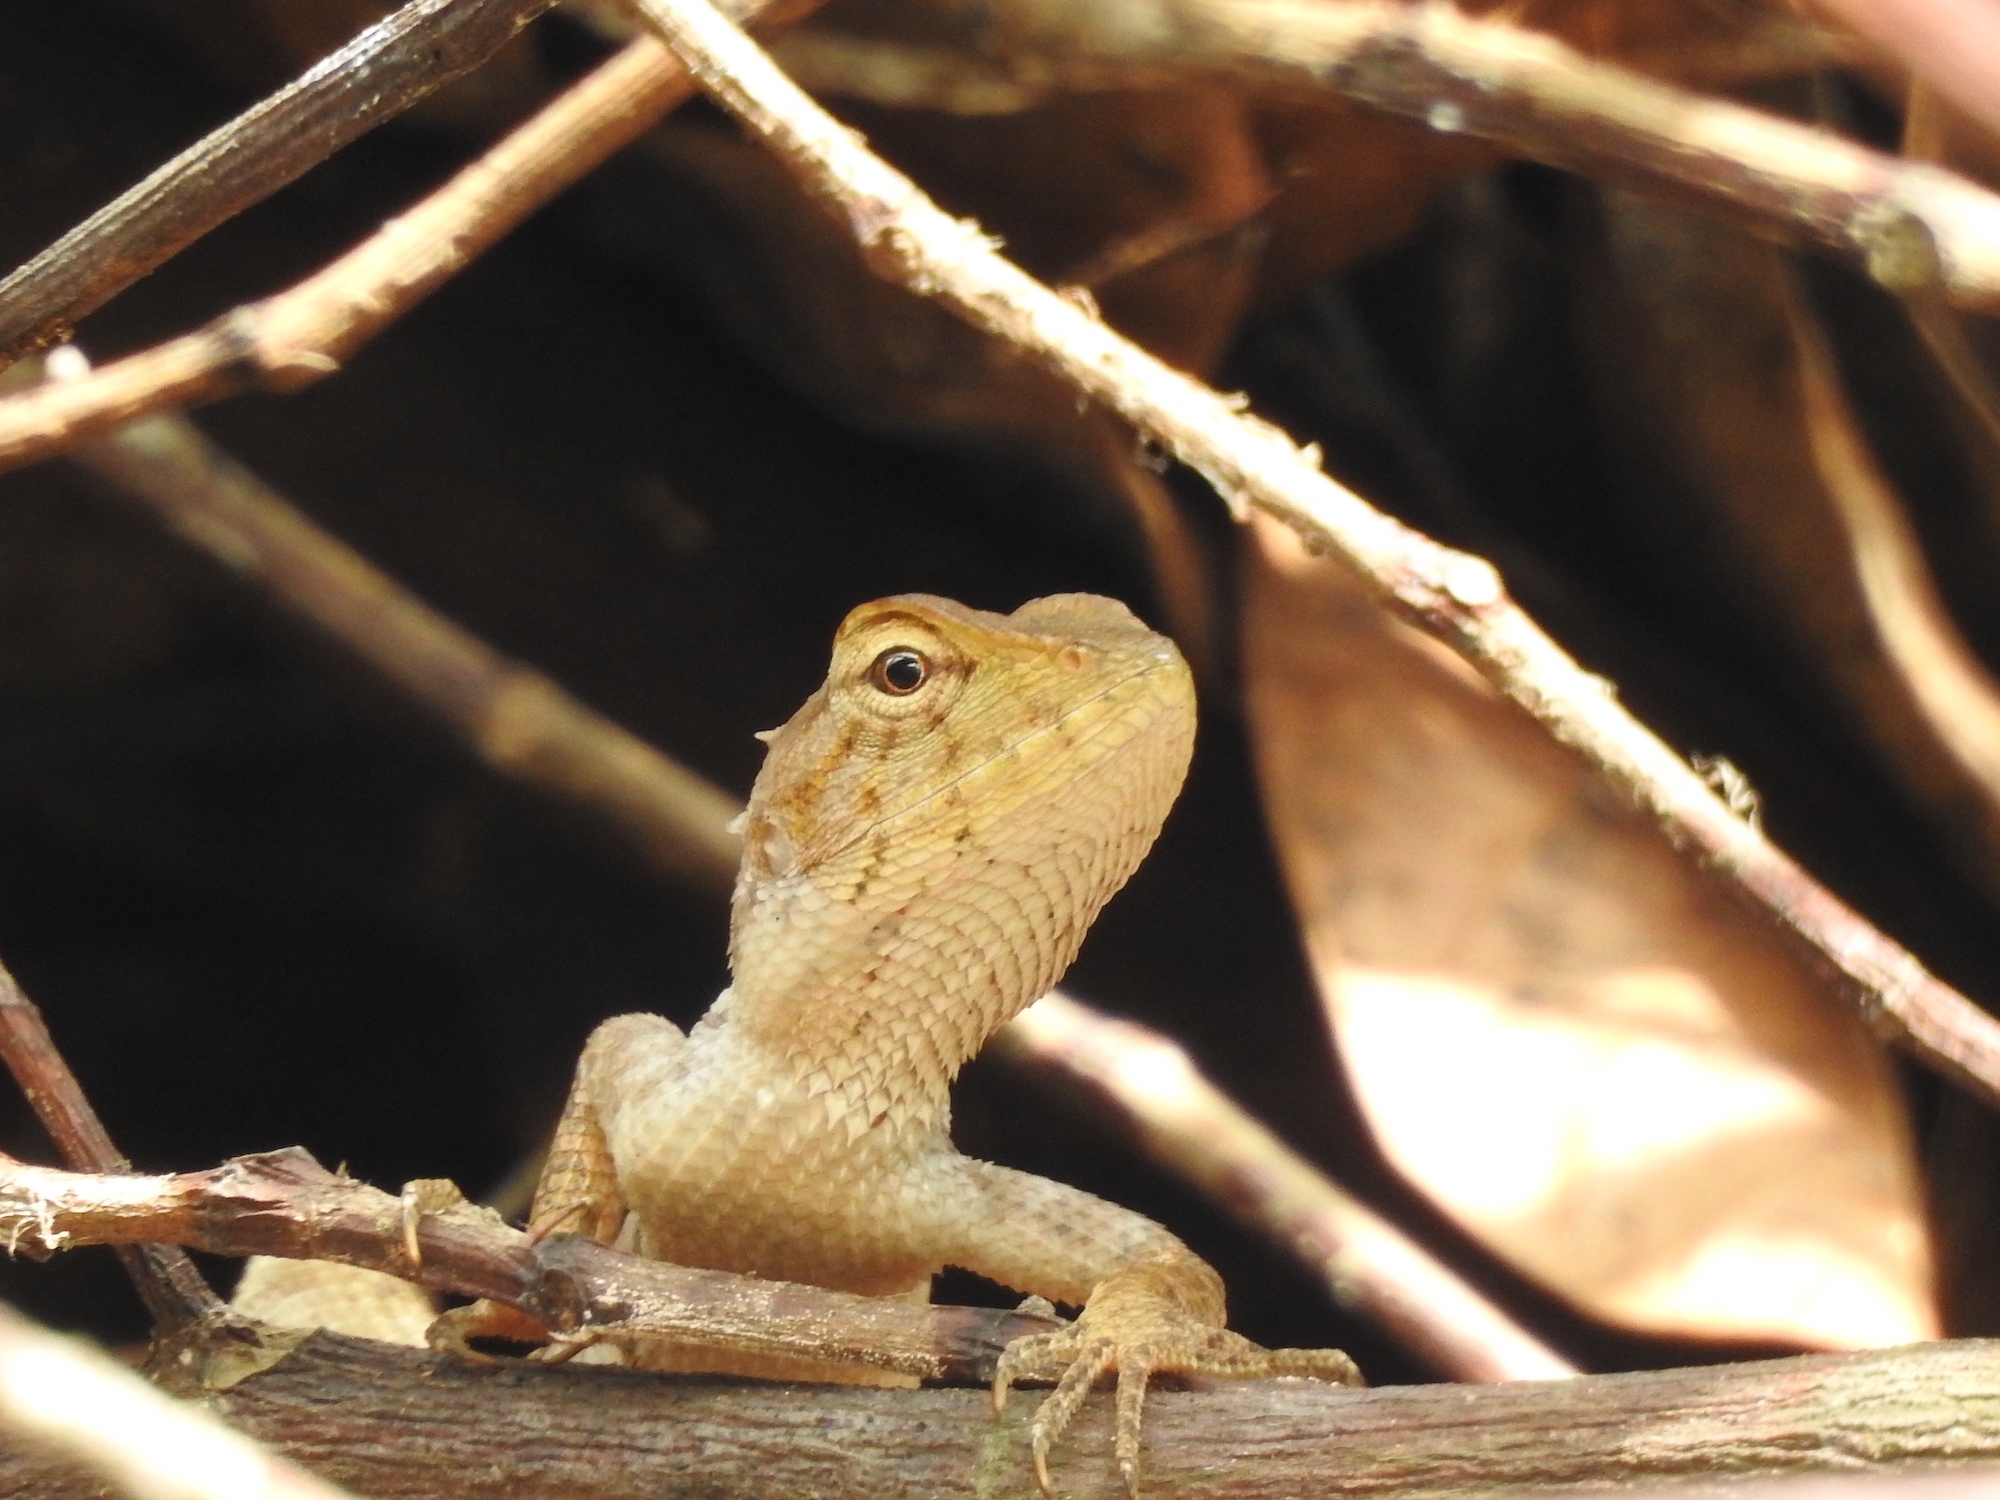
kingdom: Animalia
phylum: Chordata
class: Squamata
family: Agamidae
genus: Calotes
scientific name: Calotes versicolor
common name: Oriental garden lizard
